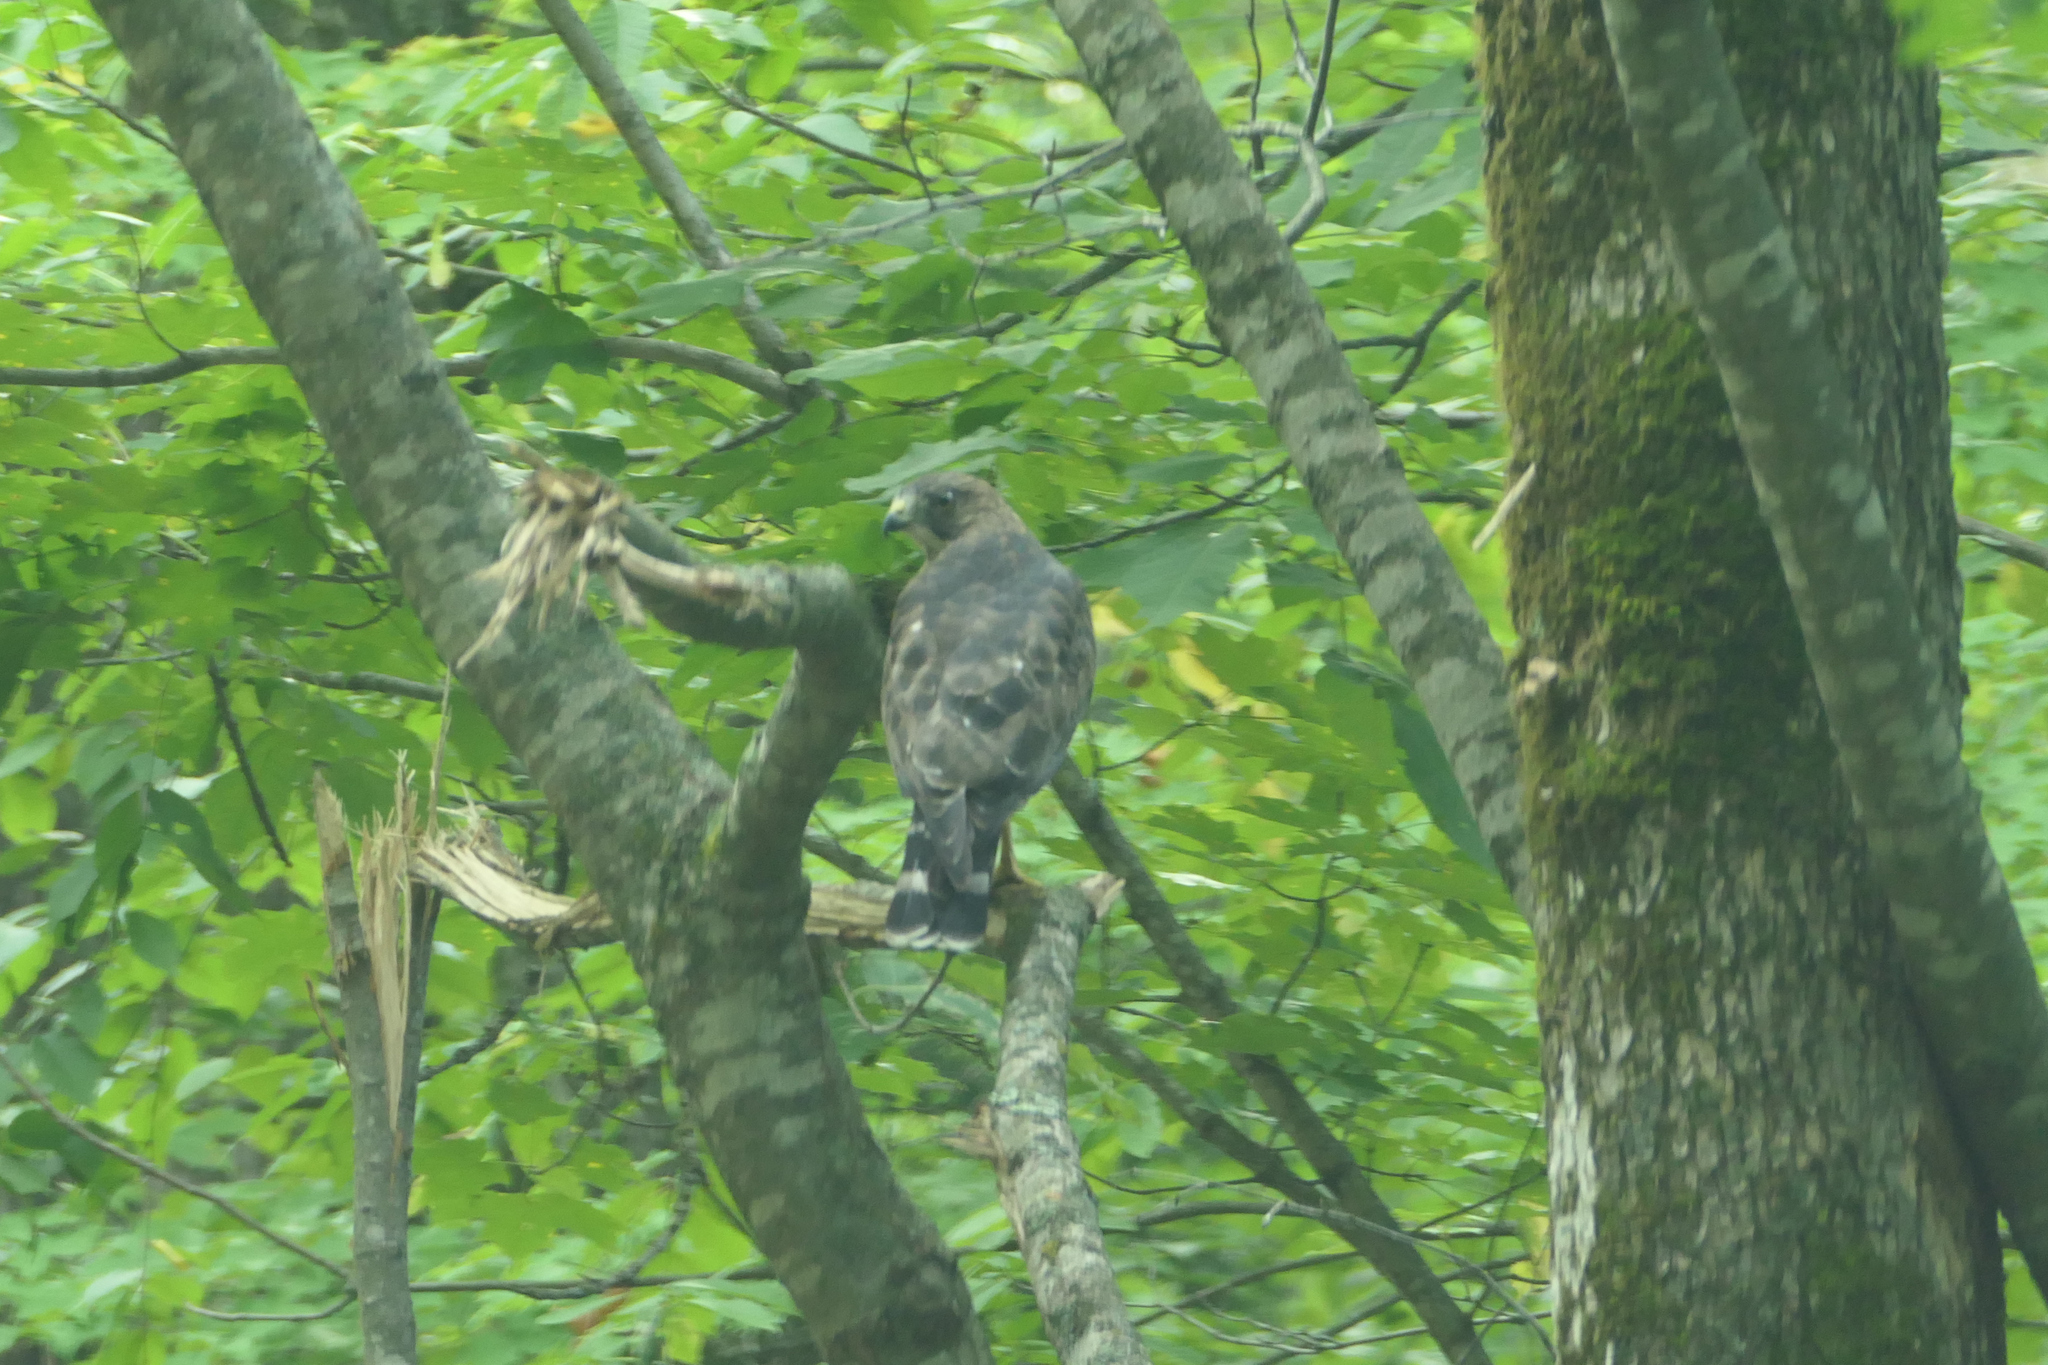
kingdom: Animalia
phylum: Chordata
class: Aves
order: Accipitriformes
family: Accipitridae
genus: Buteo
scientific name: Buteo platypterus
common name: Broad-winged hawk
